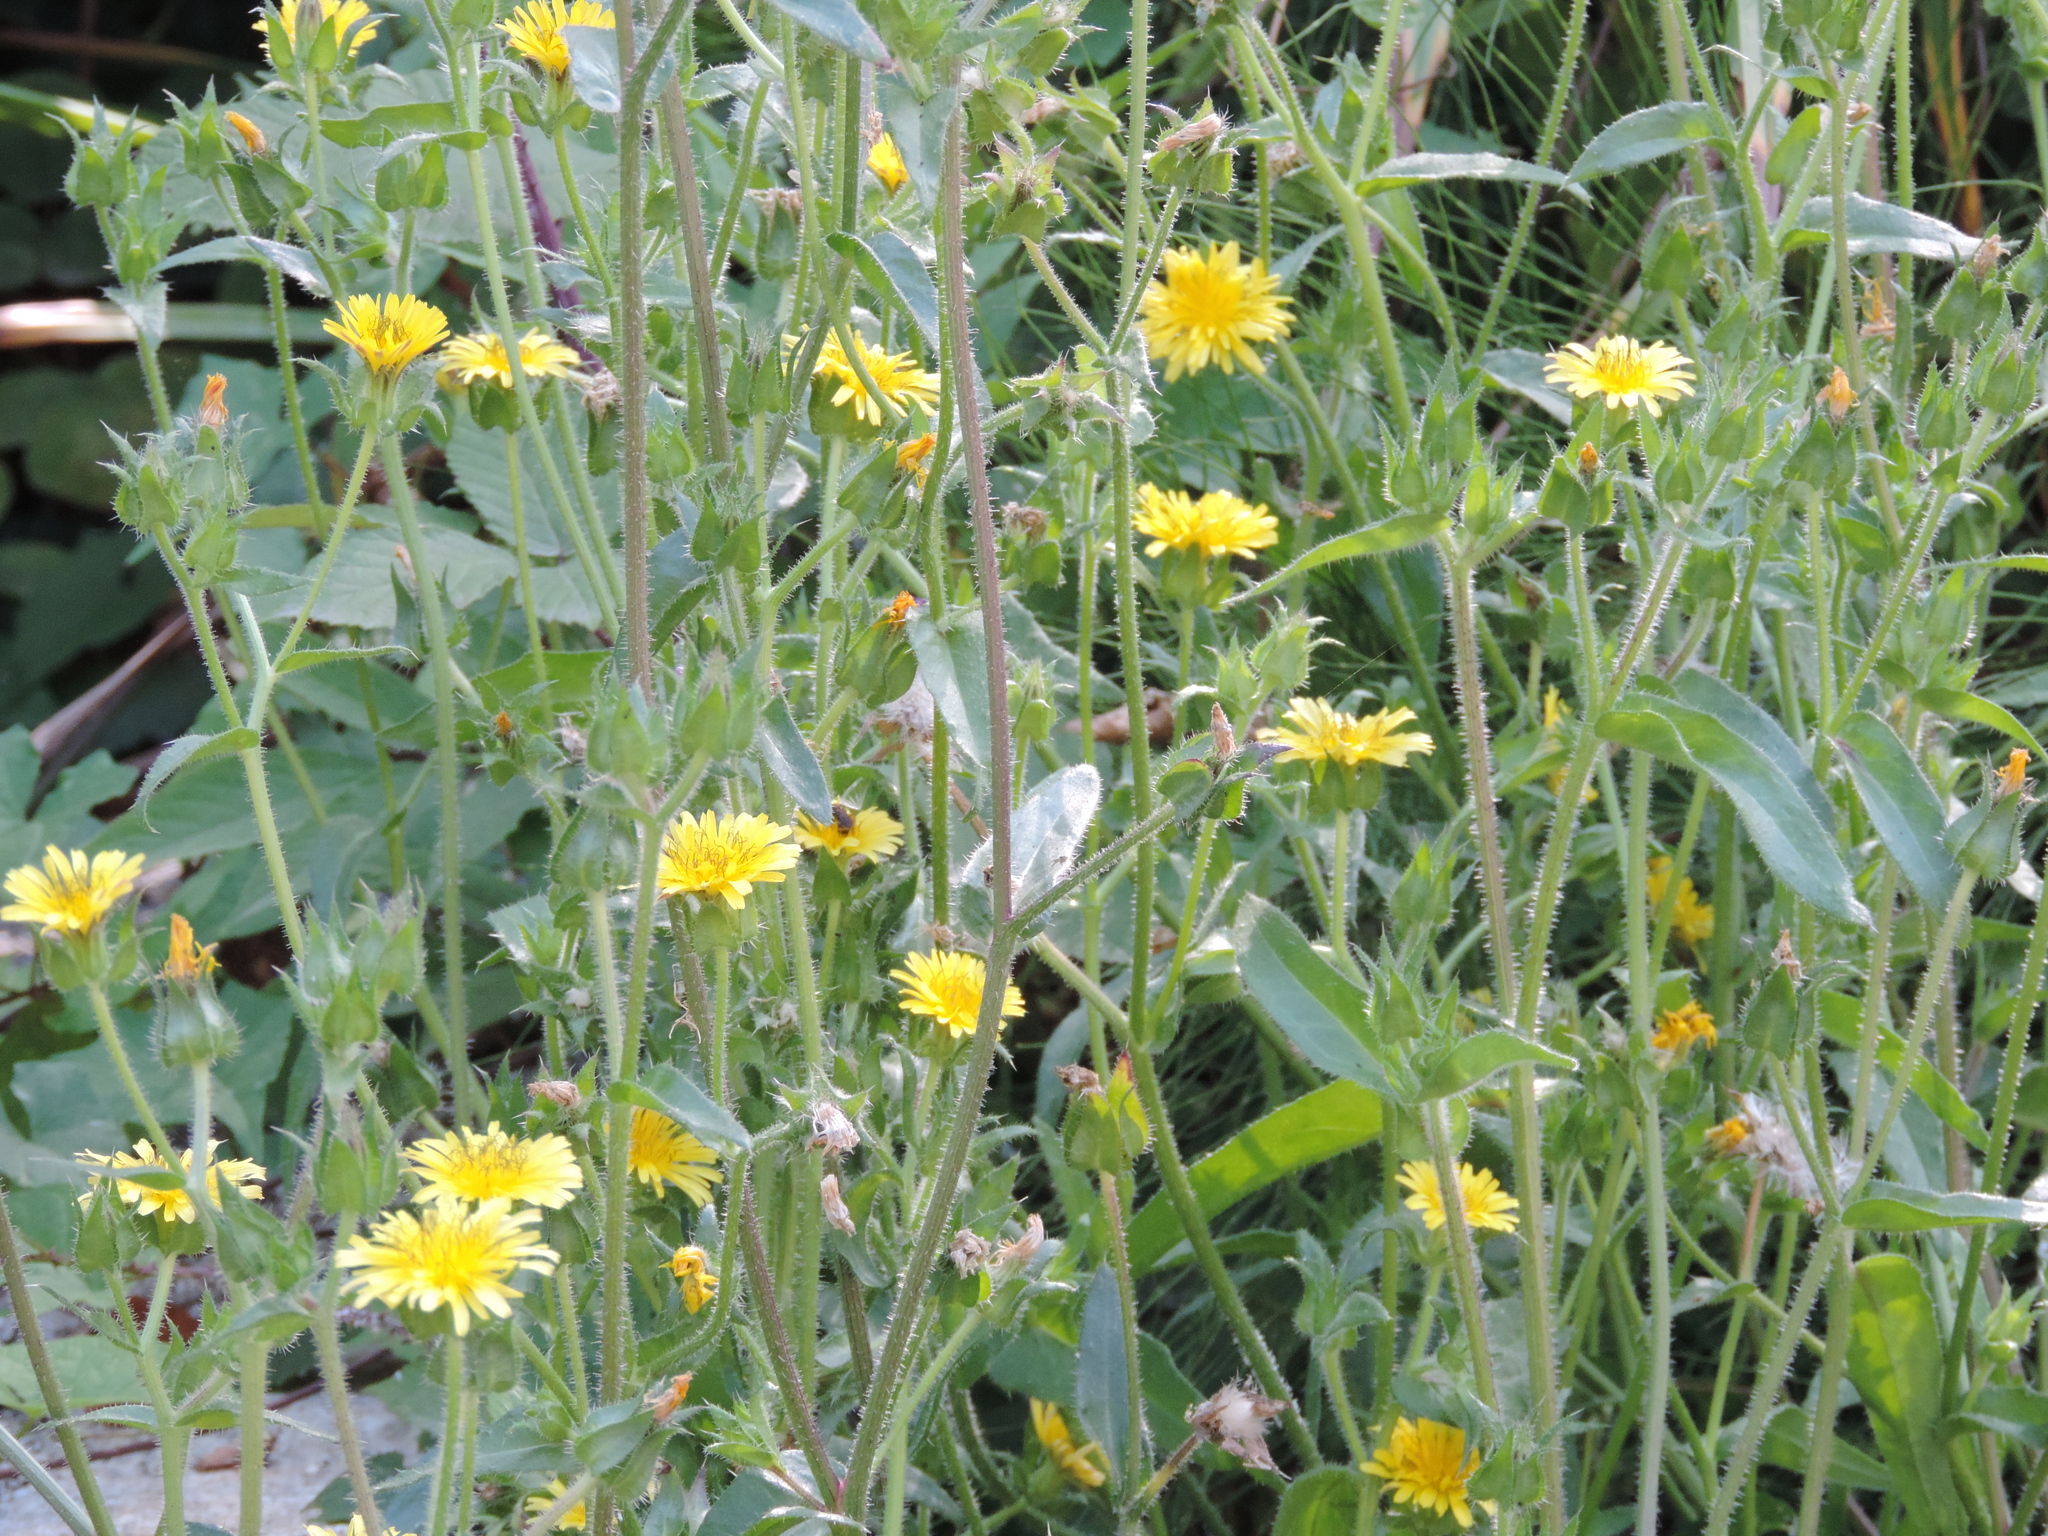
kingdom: Plantae
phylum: Tracheophyta
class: Magnoliopsida
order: Asterales
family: Asteraceae
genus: Helminthotheca
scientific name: Helminthotheca echioides
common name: Ox-tongue
